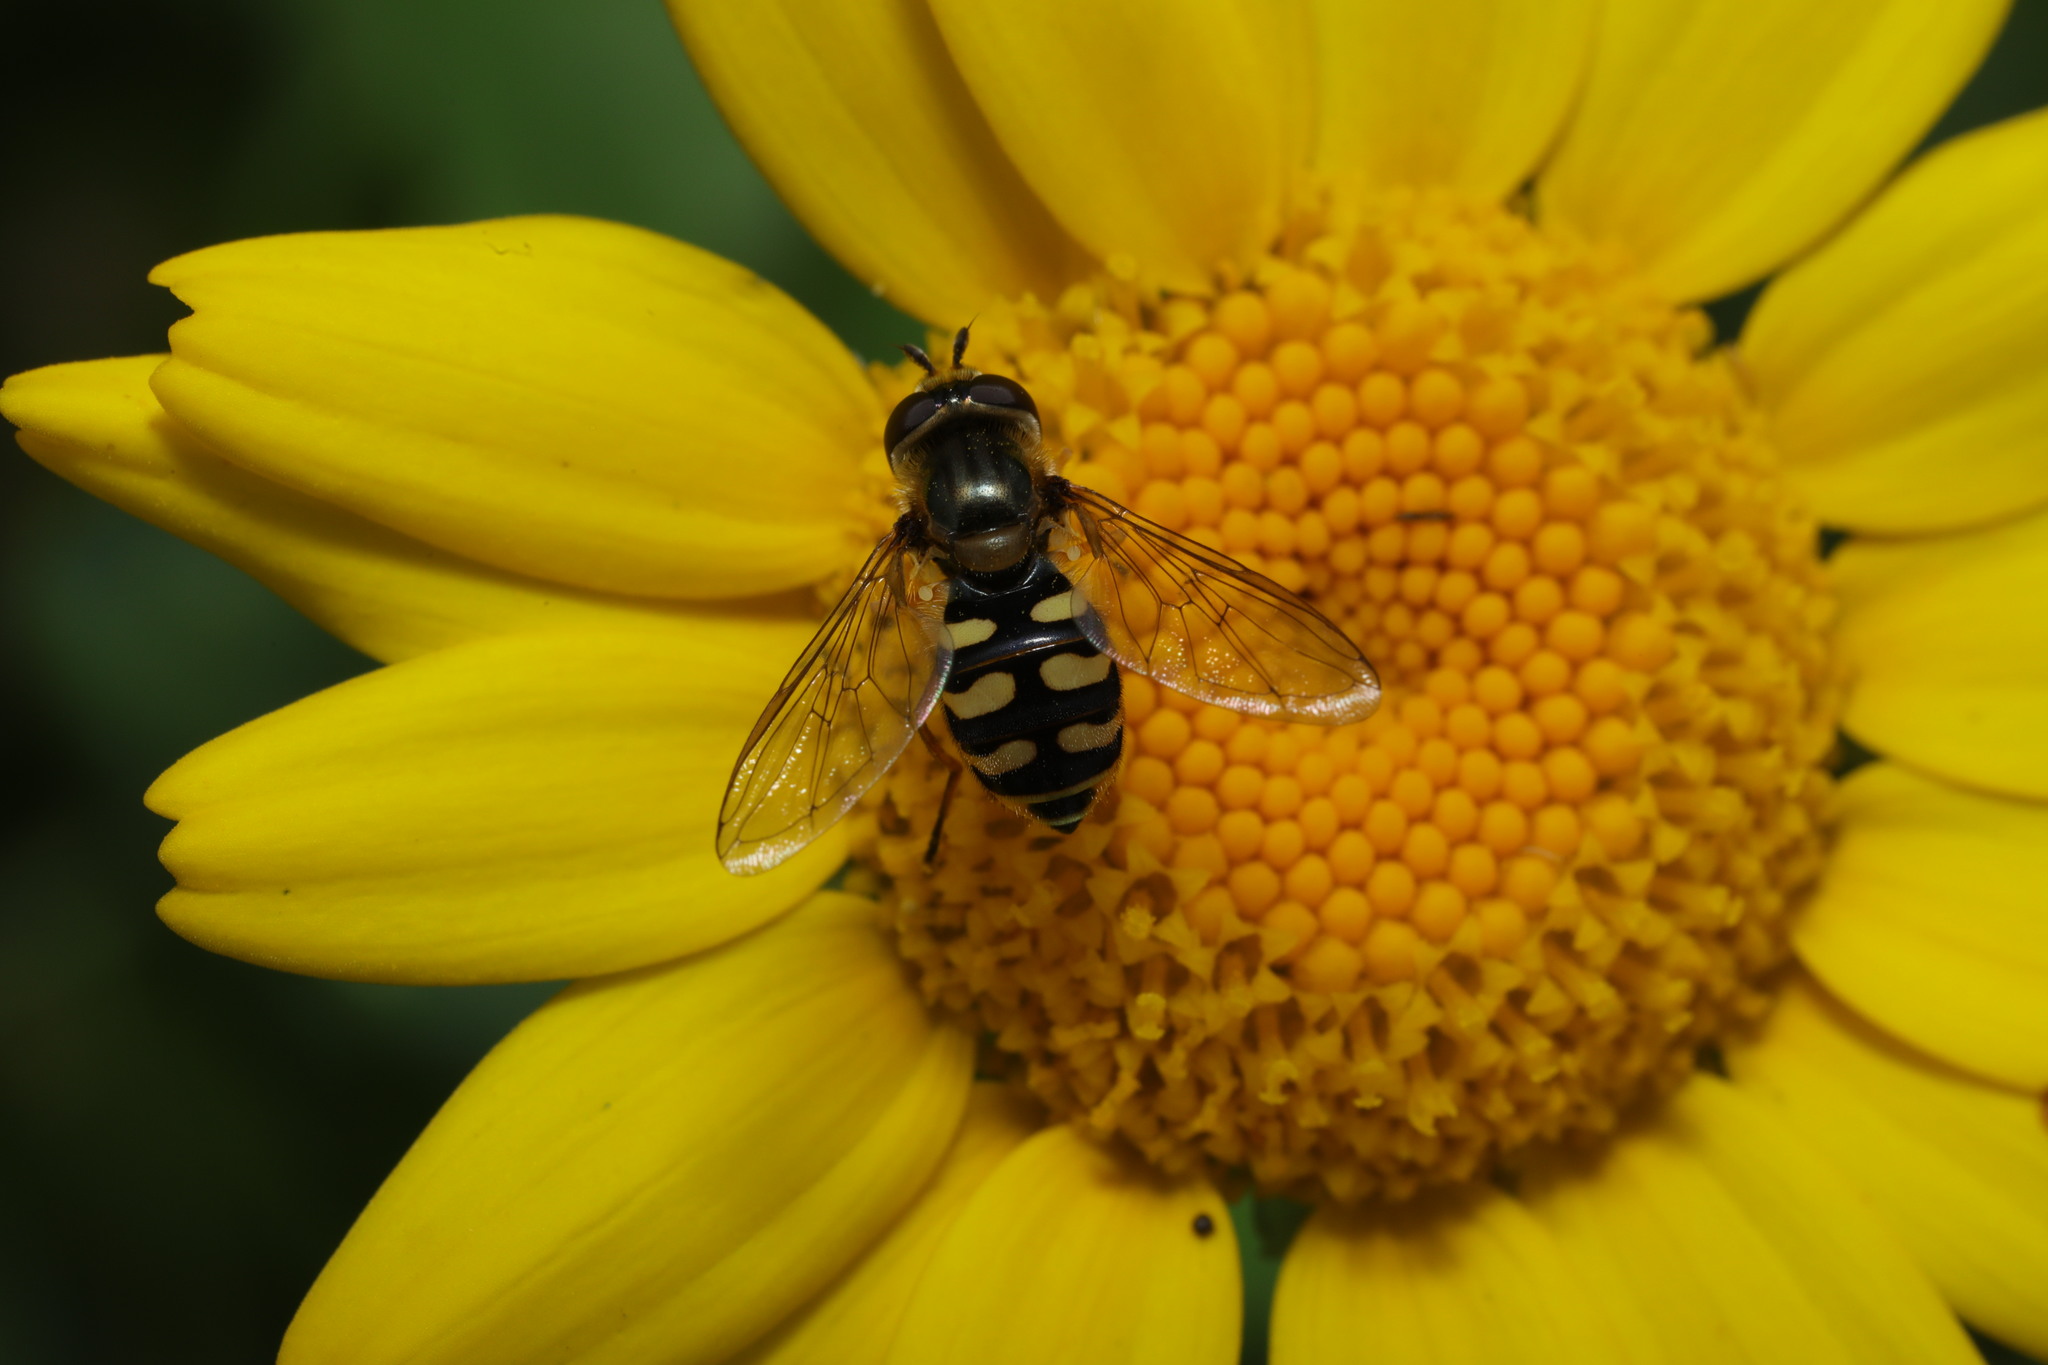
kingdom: Animalia
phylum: Arthropoda
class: Insecta
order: Diptera
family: Syrphidae
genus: Eupeodes
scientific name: Eupeodes corollae
